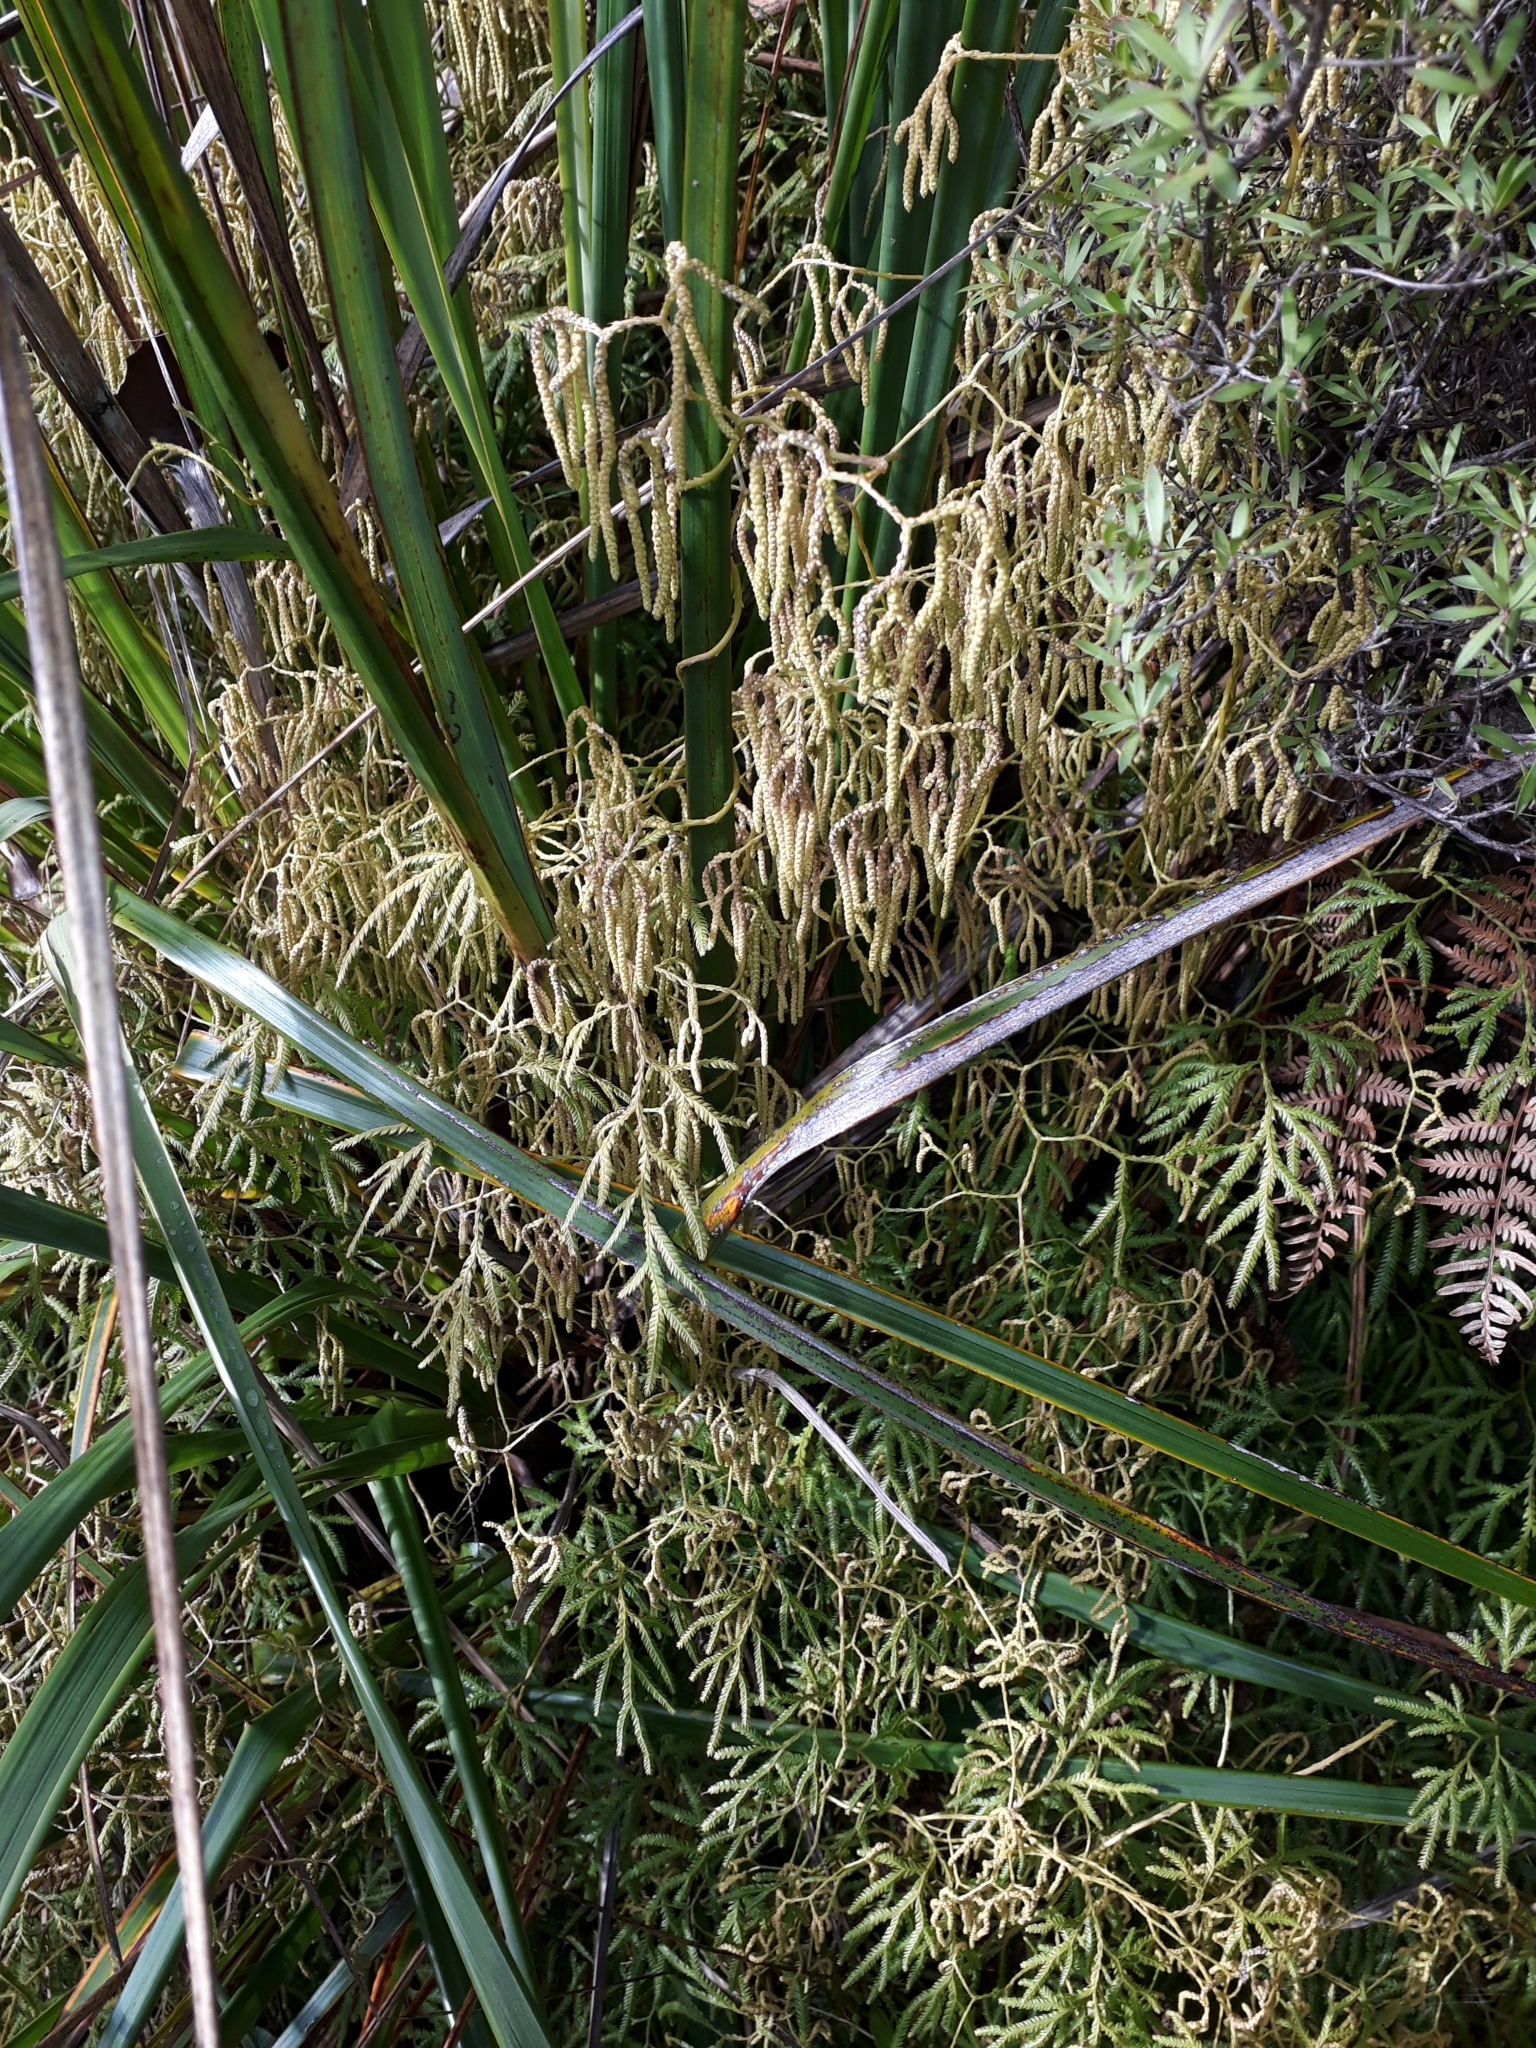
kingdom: Plantae
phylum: Tracheophyta
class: Lycopodiopsida
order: Lycopodiales
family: Lycopodiaceae
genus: Lycopodium
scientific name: Lycopodium volubile
